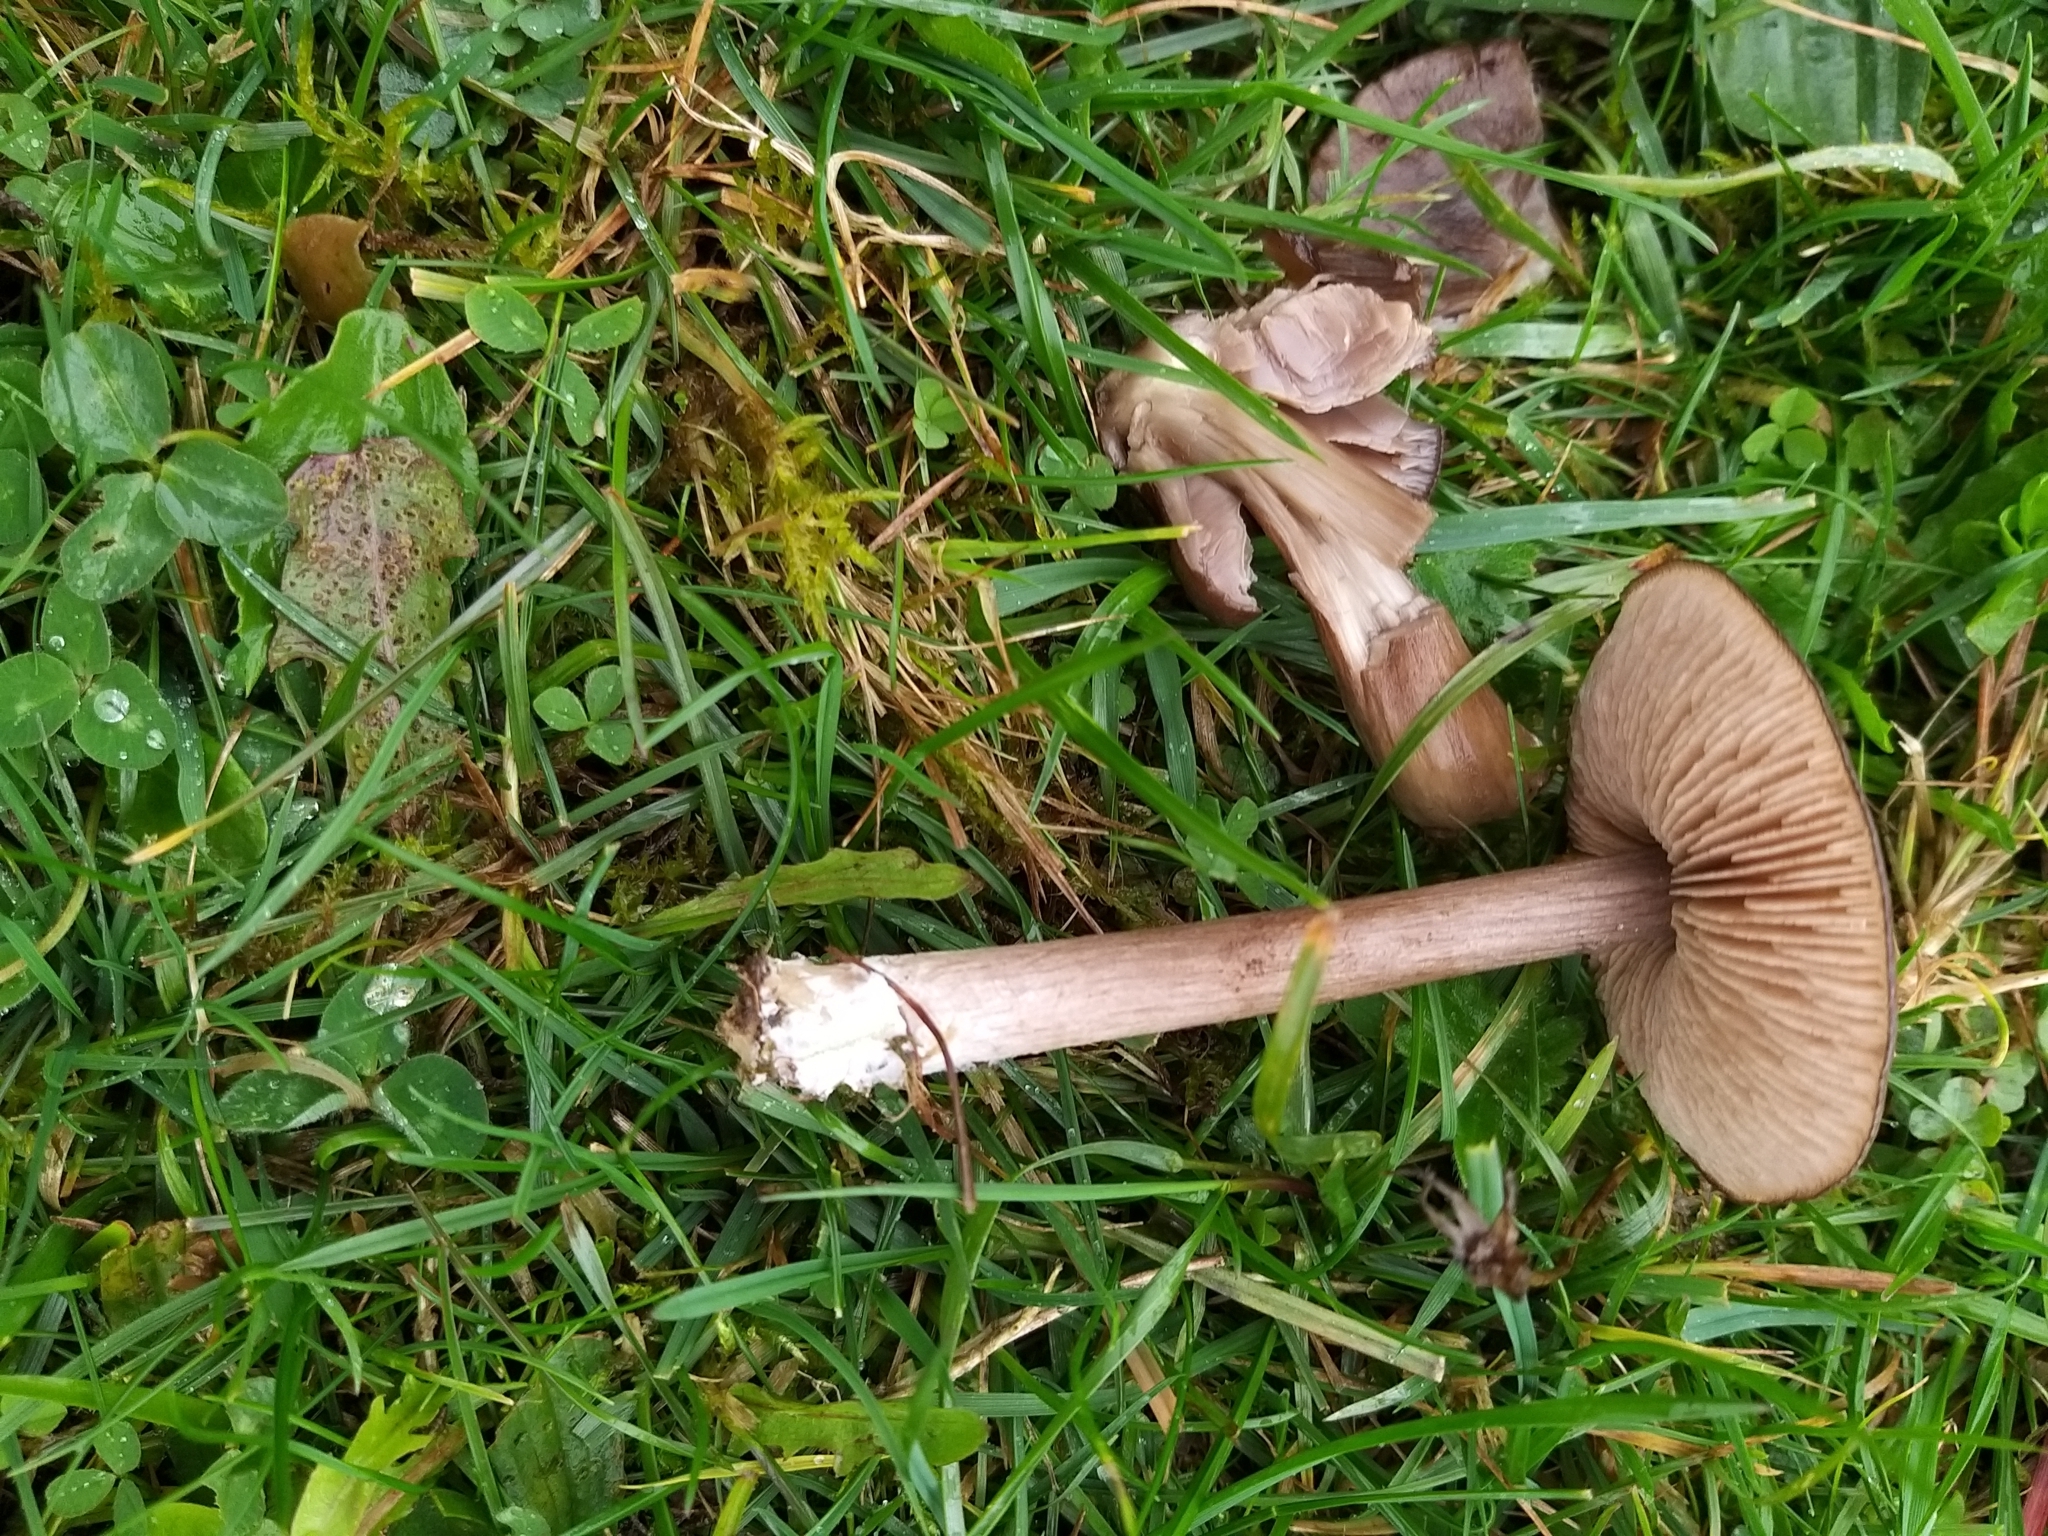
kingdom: Fungi
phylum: Basidiomycota
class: Agaricomycetes
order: Agaricales
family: Entolomataceae
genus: Entoloma
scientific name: Entoloma porphyrophaeum
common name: Lilac pinkgill
